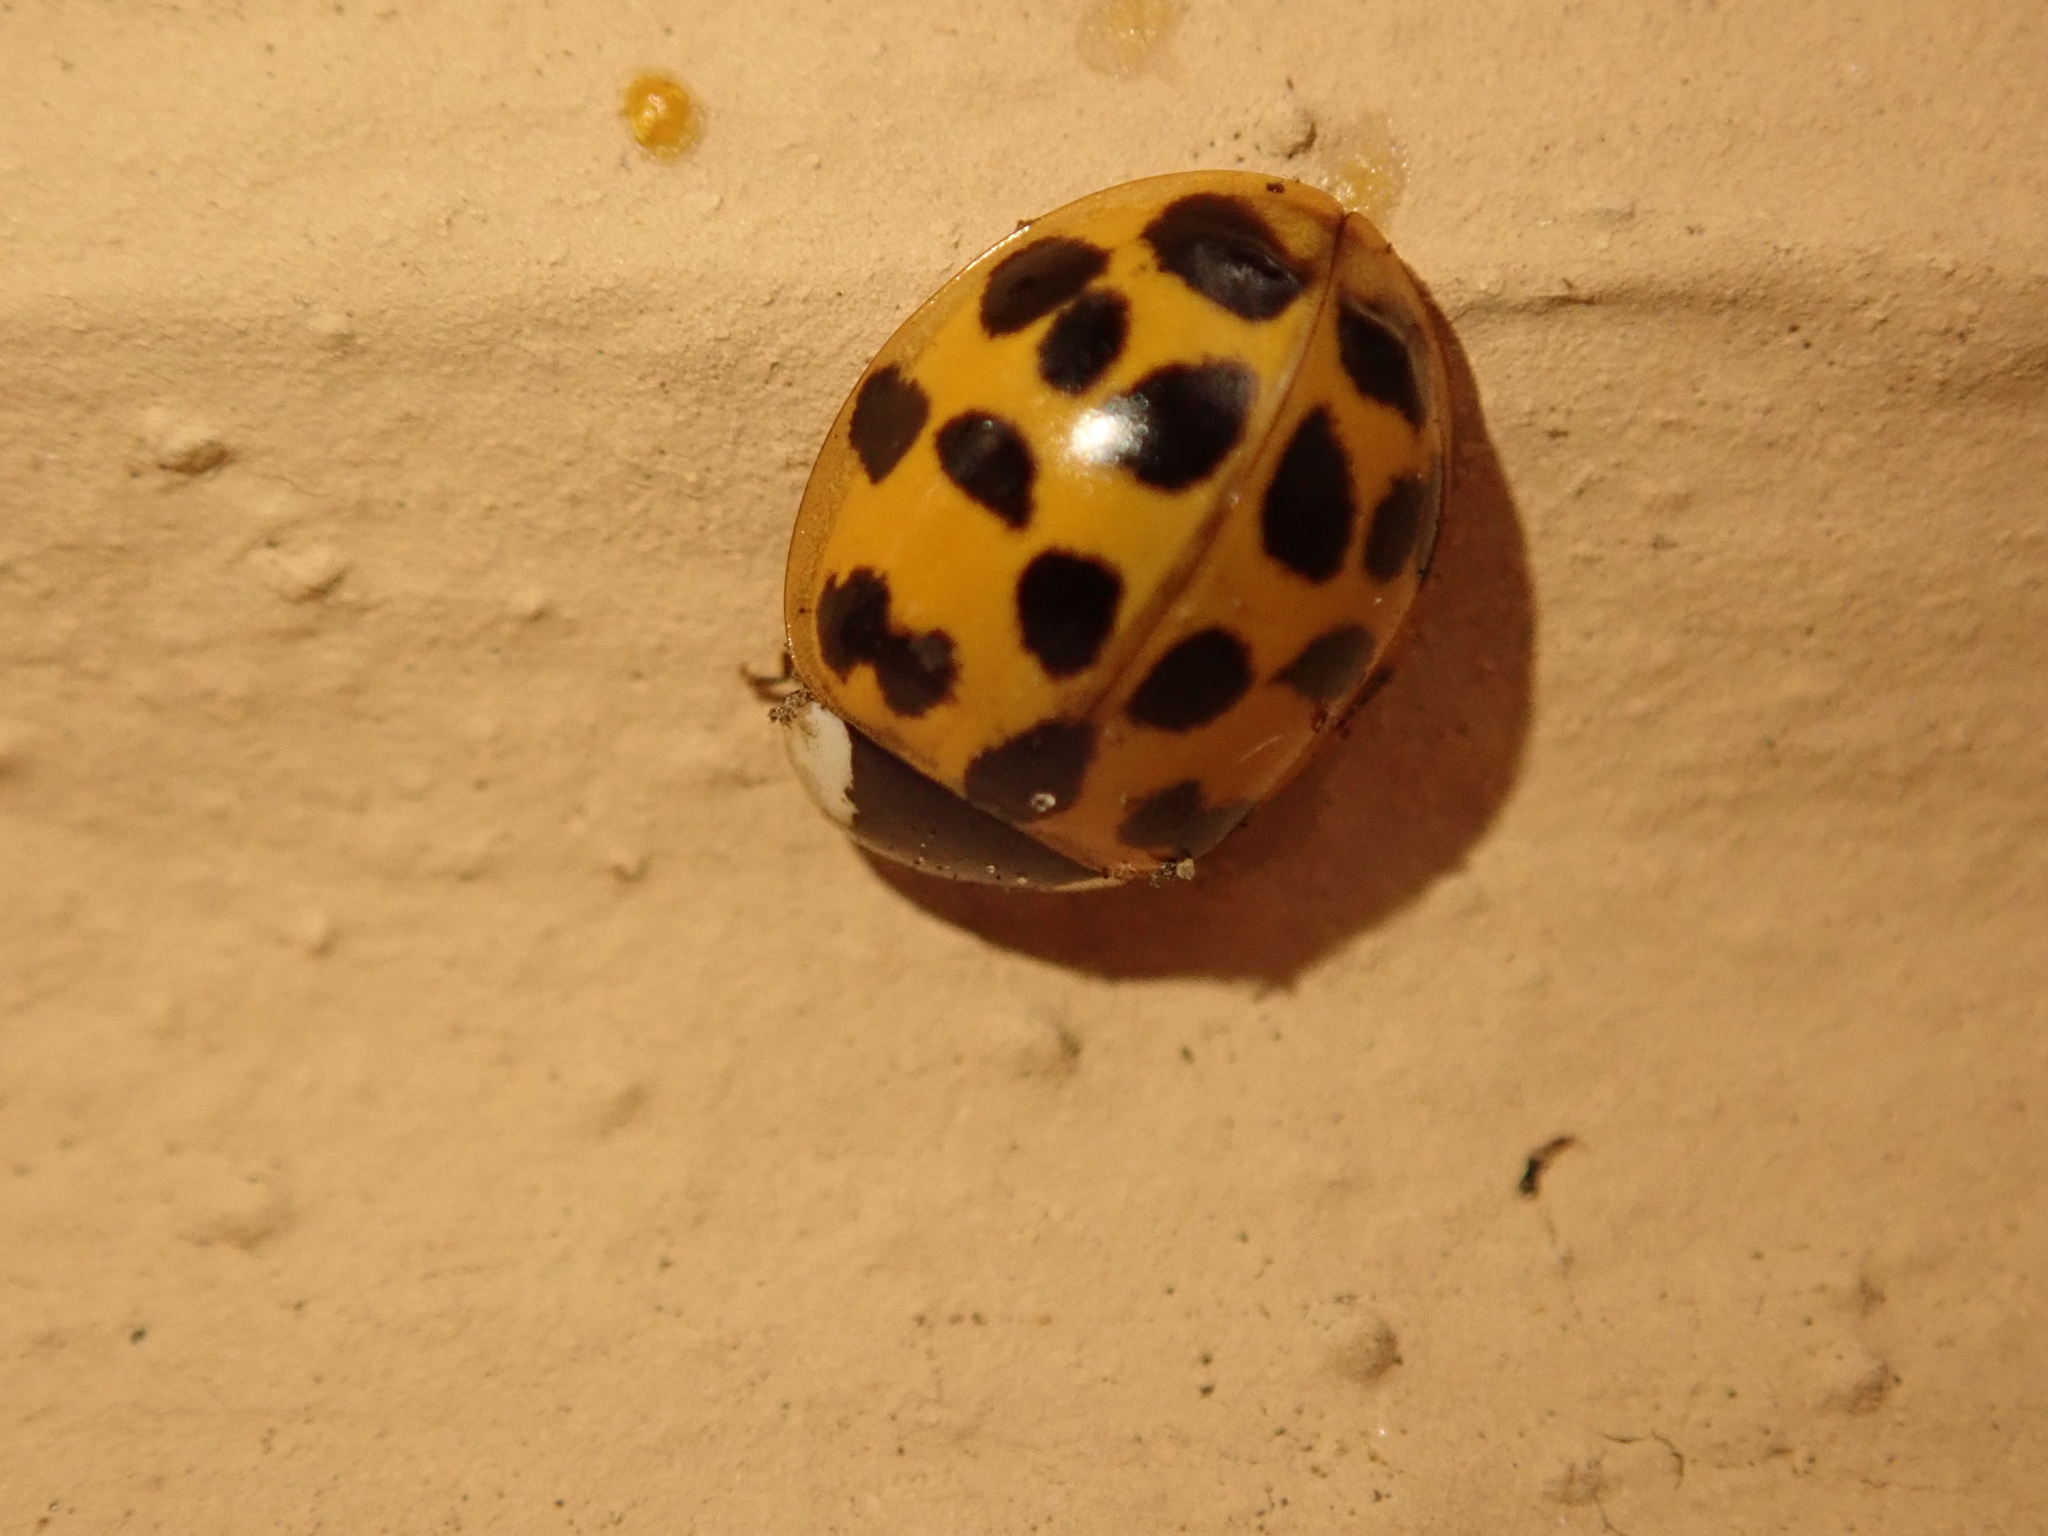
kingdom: Animalia
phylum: Arthropoda
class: Insecta
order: Coleoptera
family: Coccinellidae
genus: Harmonia
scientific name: Harmonia axyridis
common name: Harlequin ladybird
